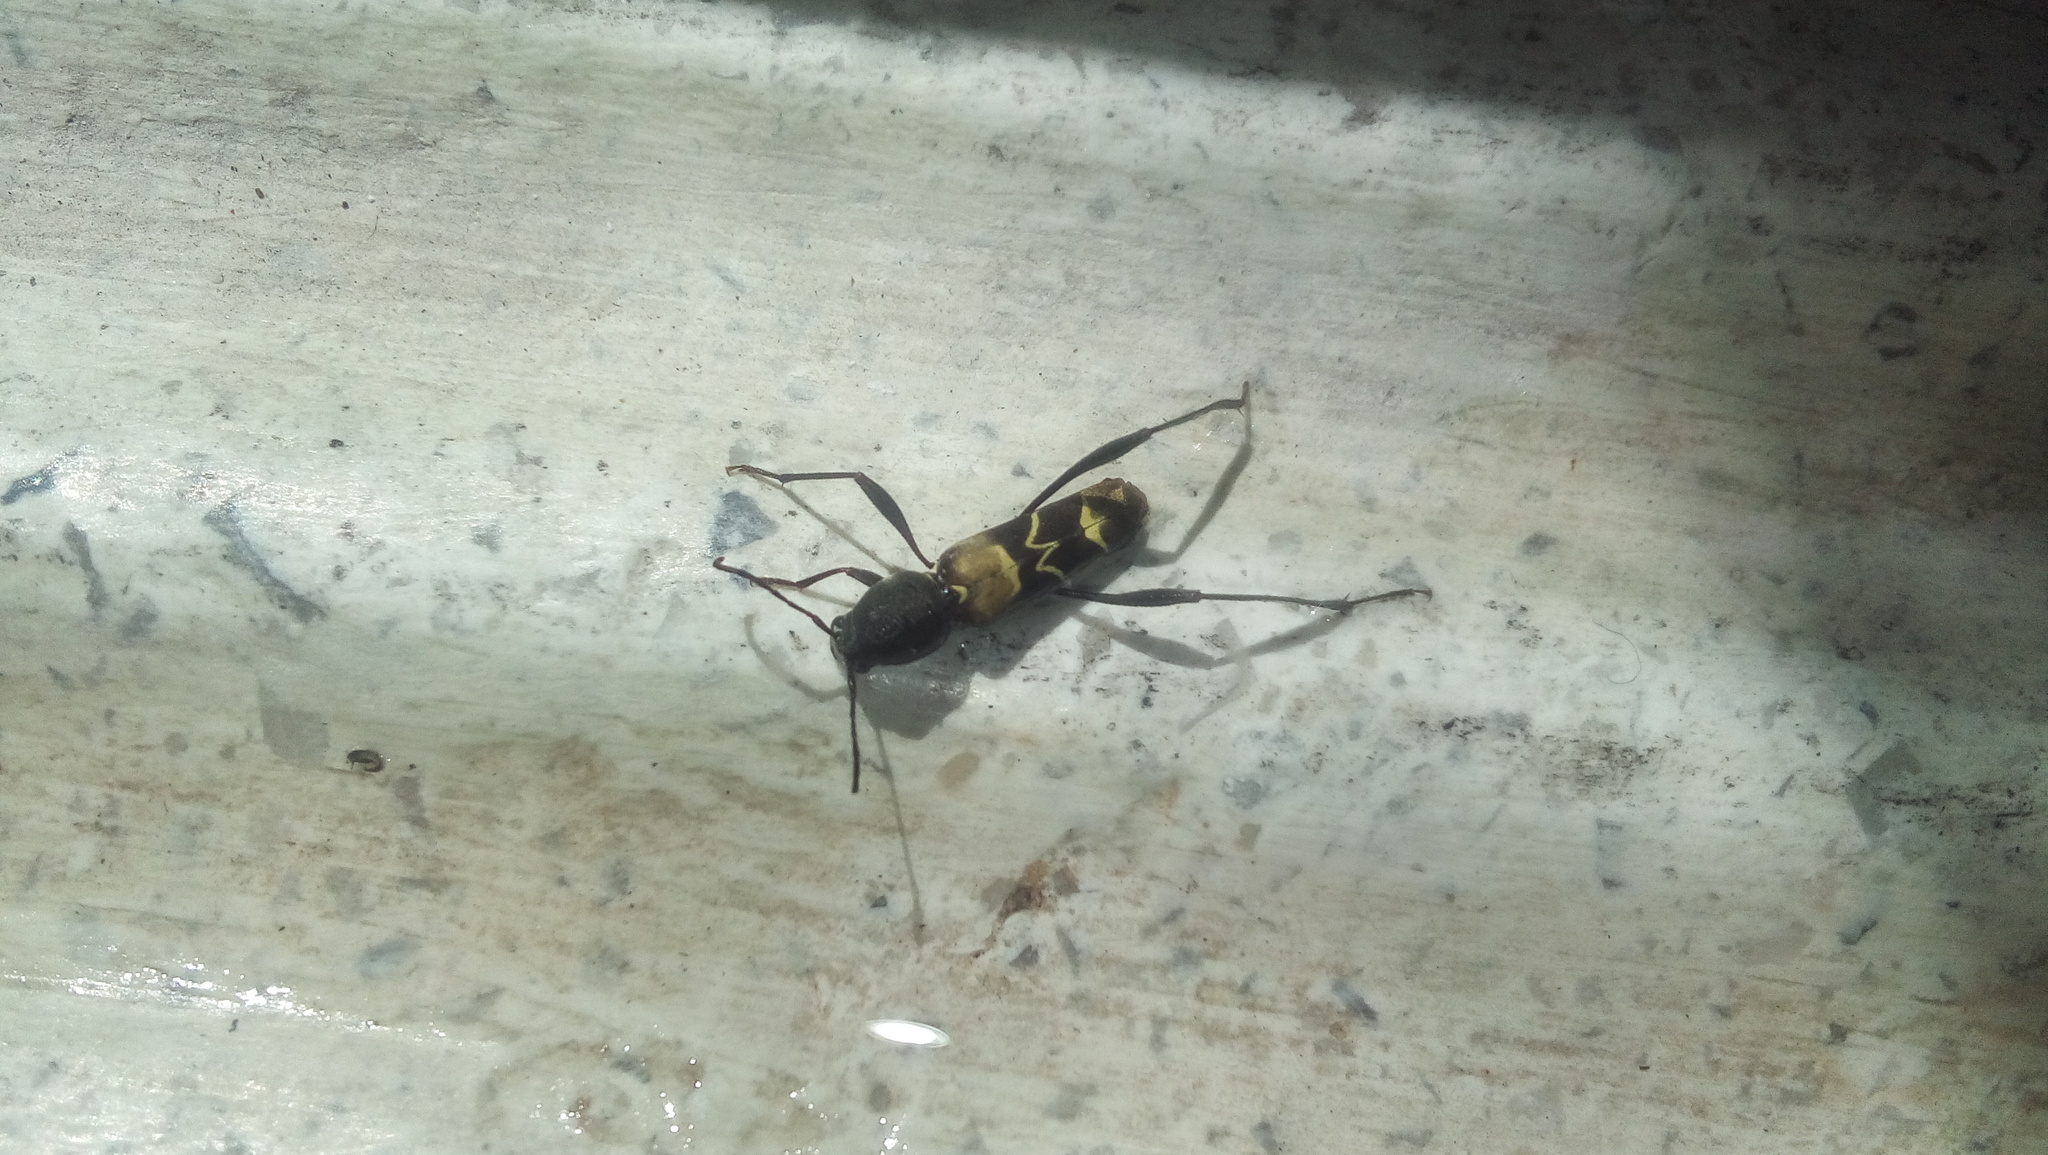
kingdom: Animalia
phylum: Arthropoda
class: Insecta
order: Coleoptera
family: Cerambycidae
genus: Neoclytus
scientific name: Neoclytus augusti
